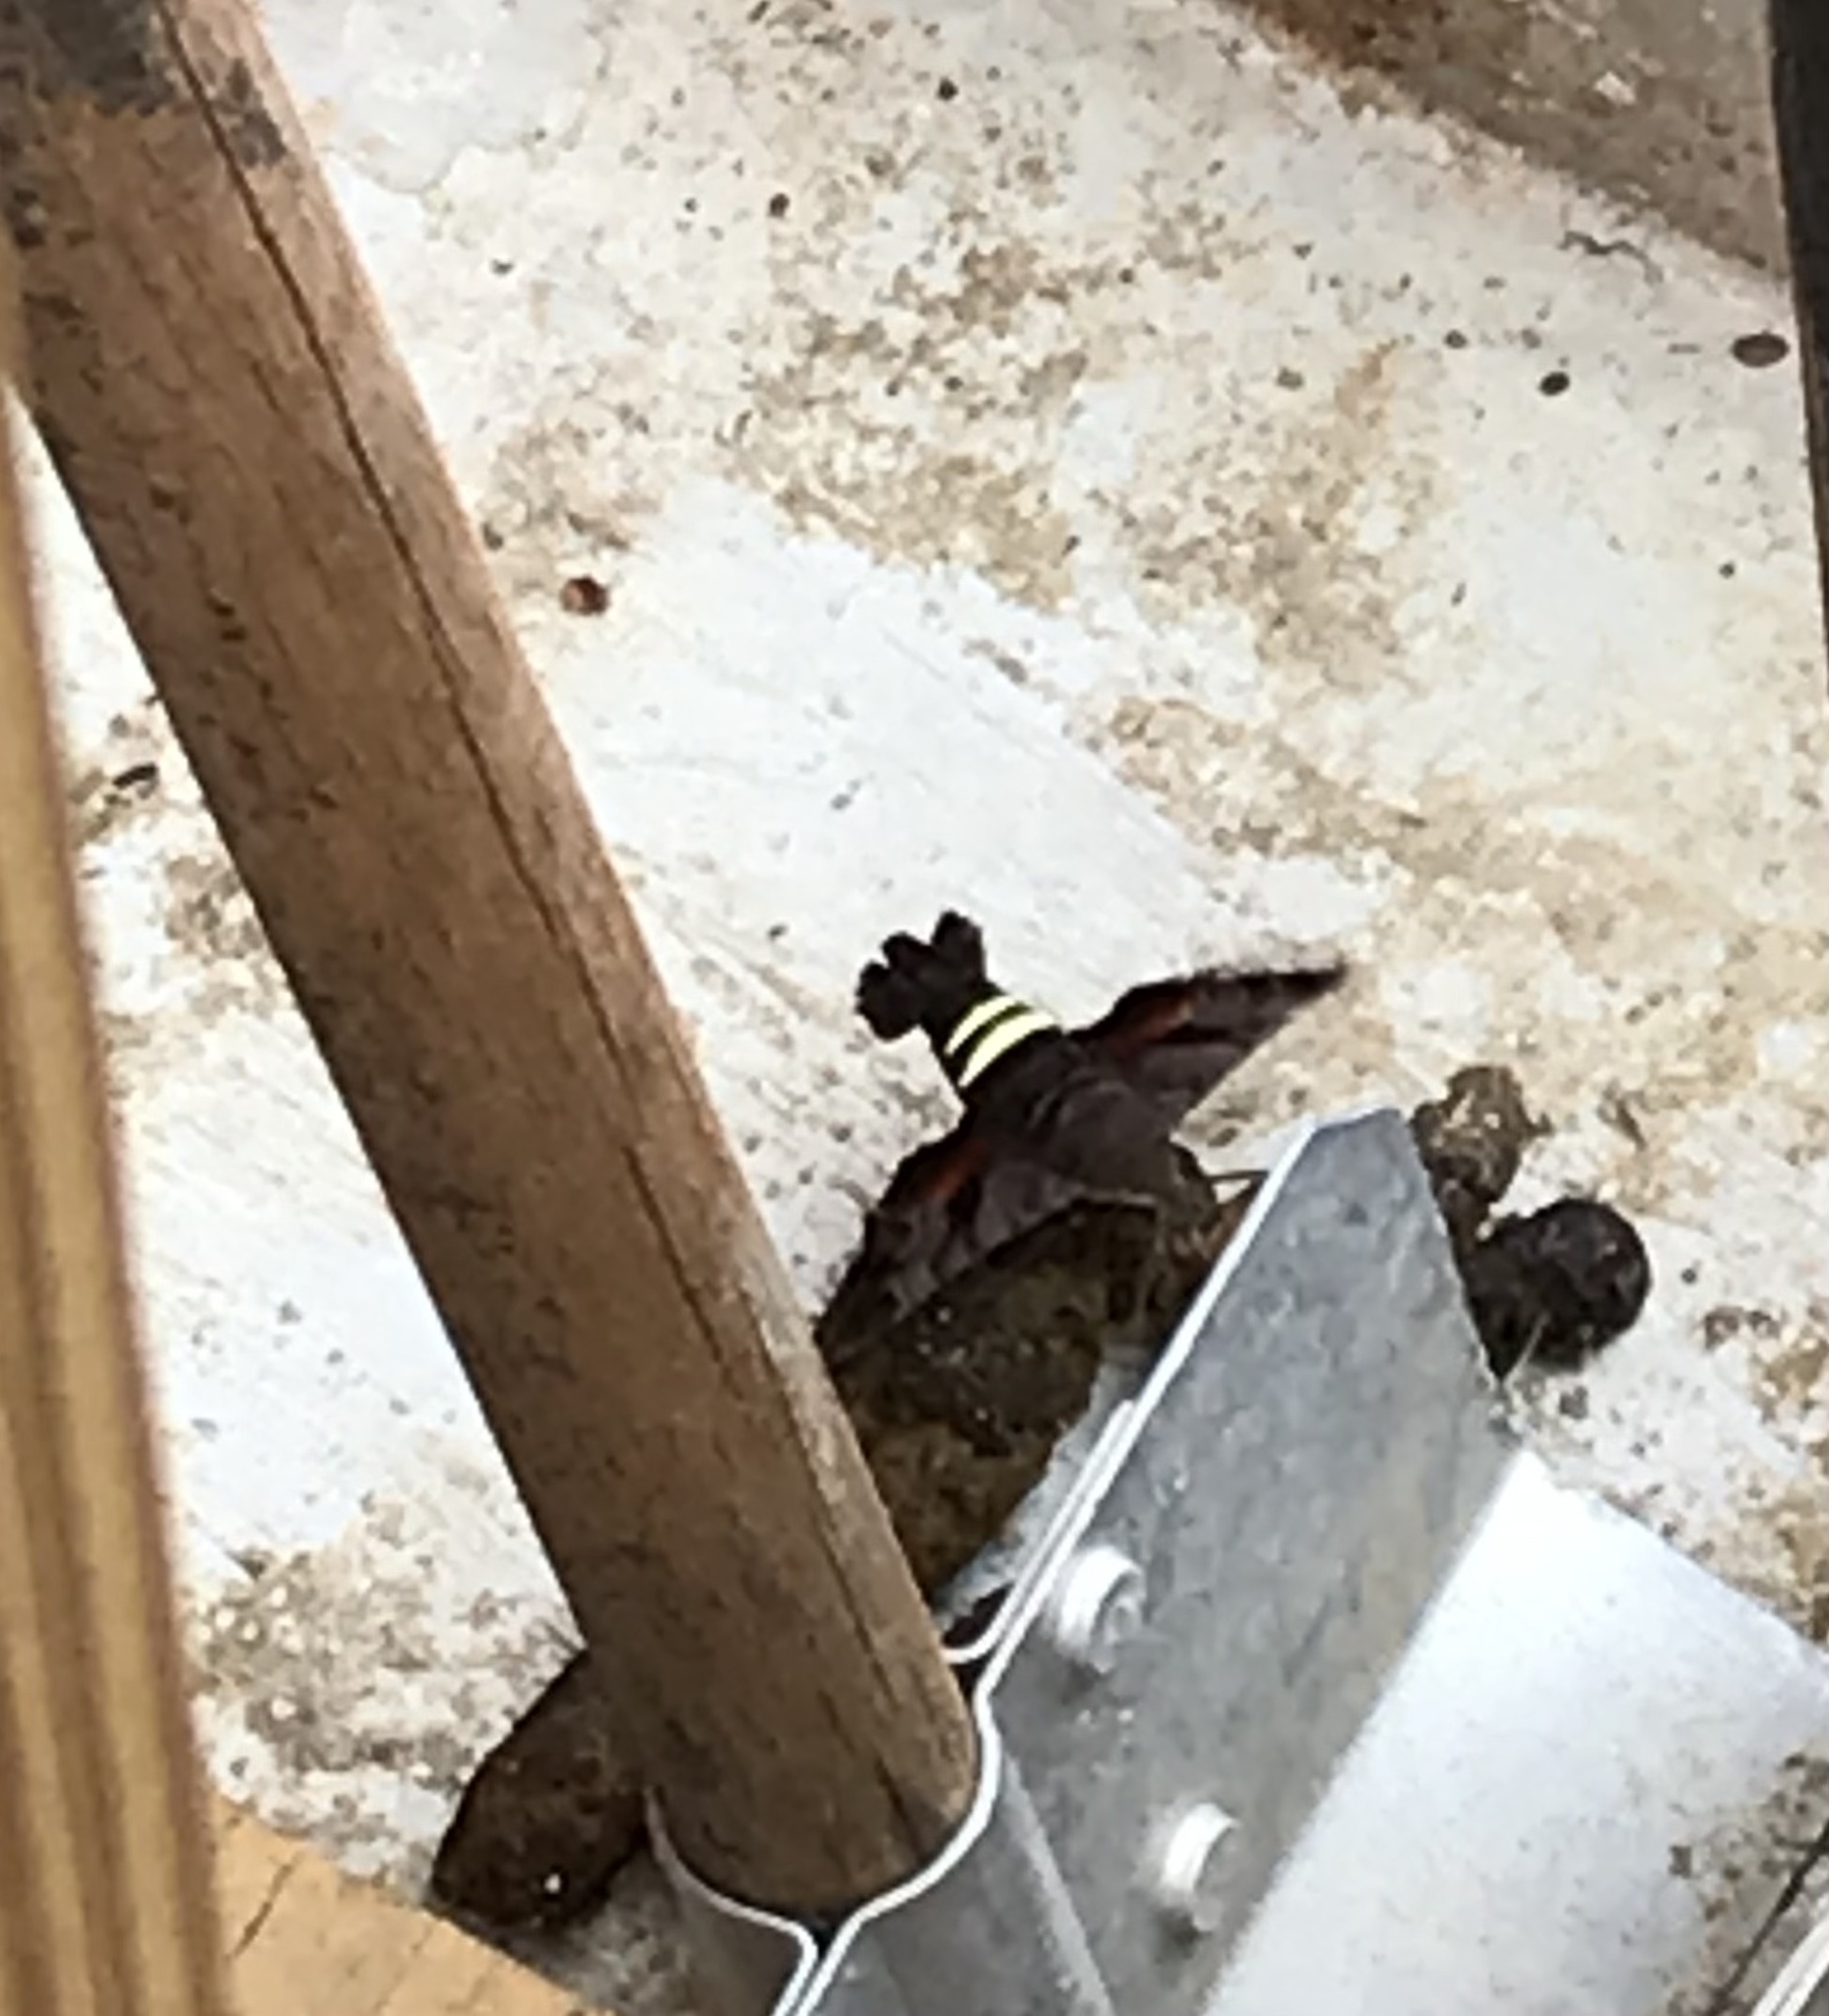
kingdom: Animalia
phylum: Arthropoda
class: Insecta
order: Lepidoptera
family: Sphingidae
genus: Amphion
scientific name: Amphion floridensis
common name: Nessus sphinx
